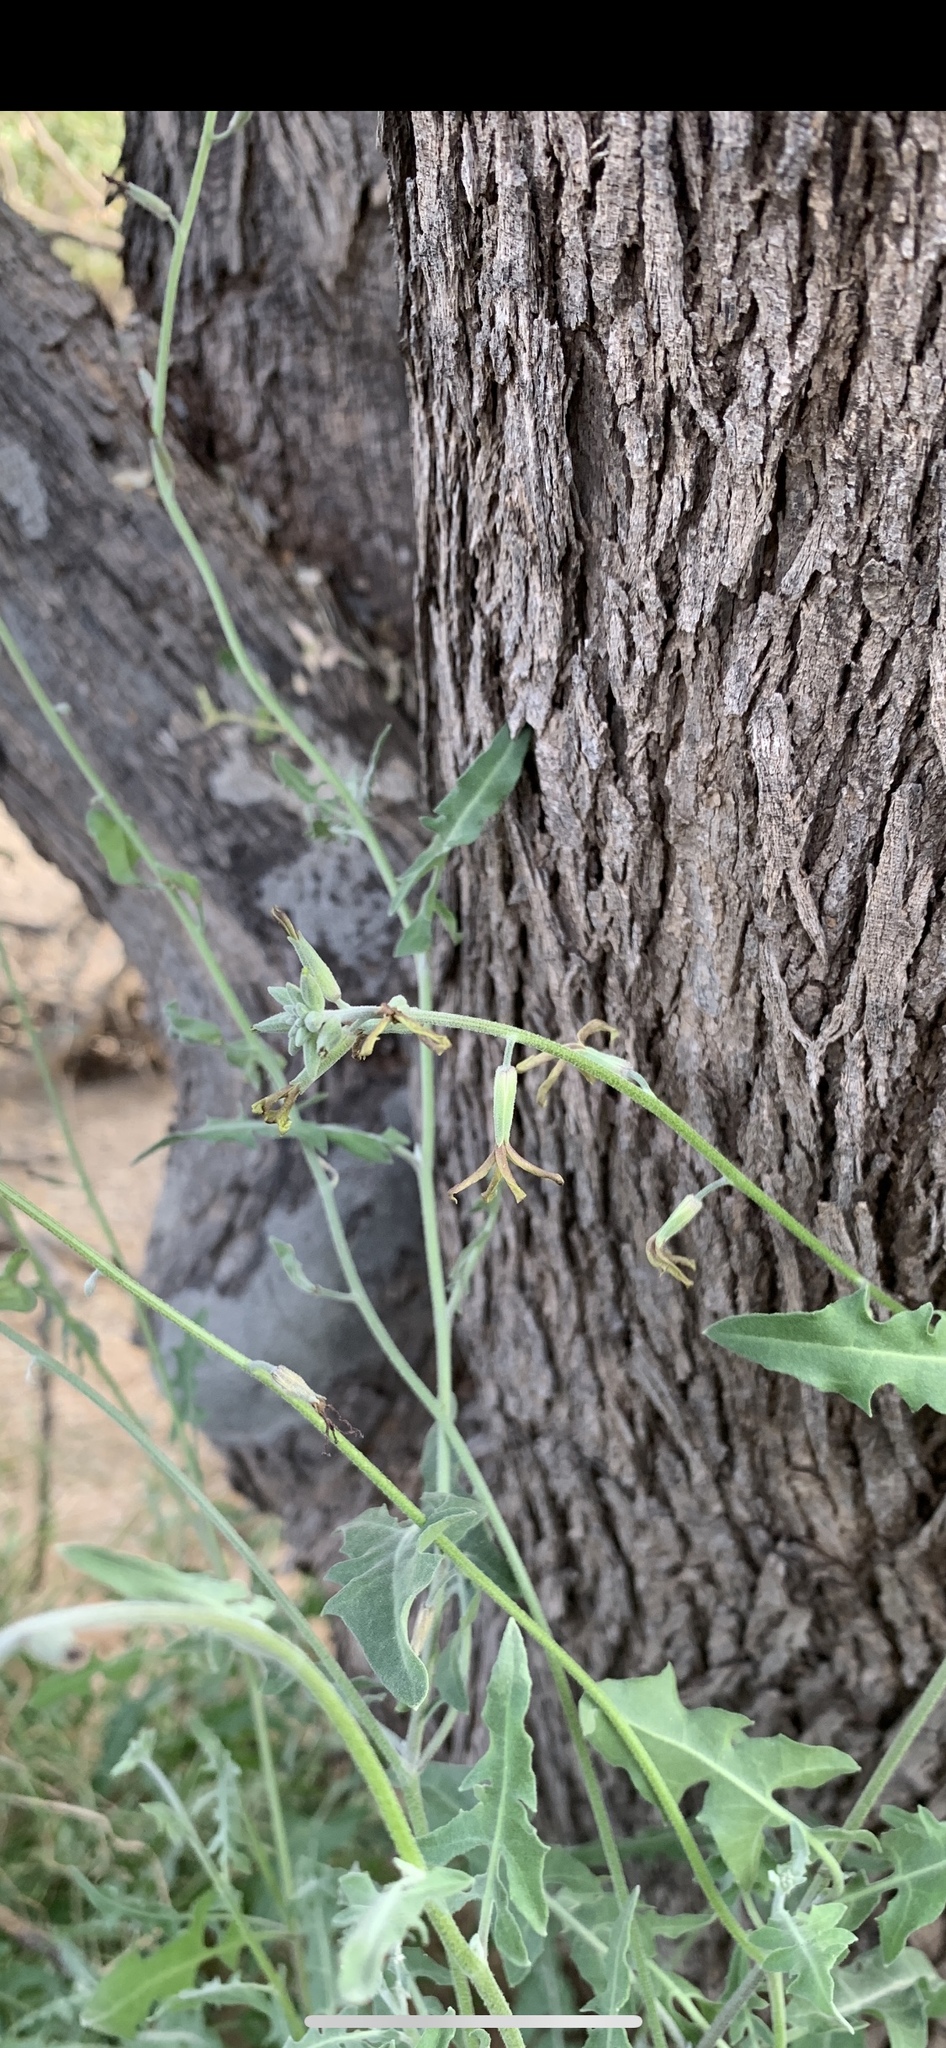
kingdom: Plantae
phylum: Tracheophyta
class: Magnoliopsida
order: Brassicales
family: Brassicaceae
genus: Lyrocarpa
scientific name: Lyrocarpa coulteri
